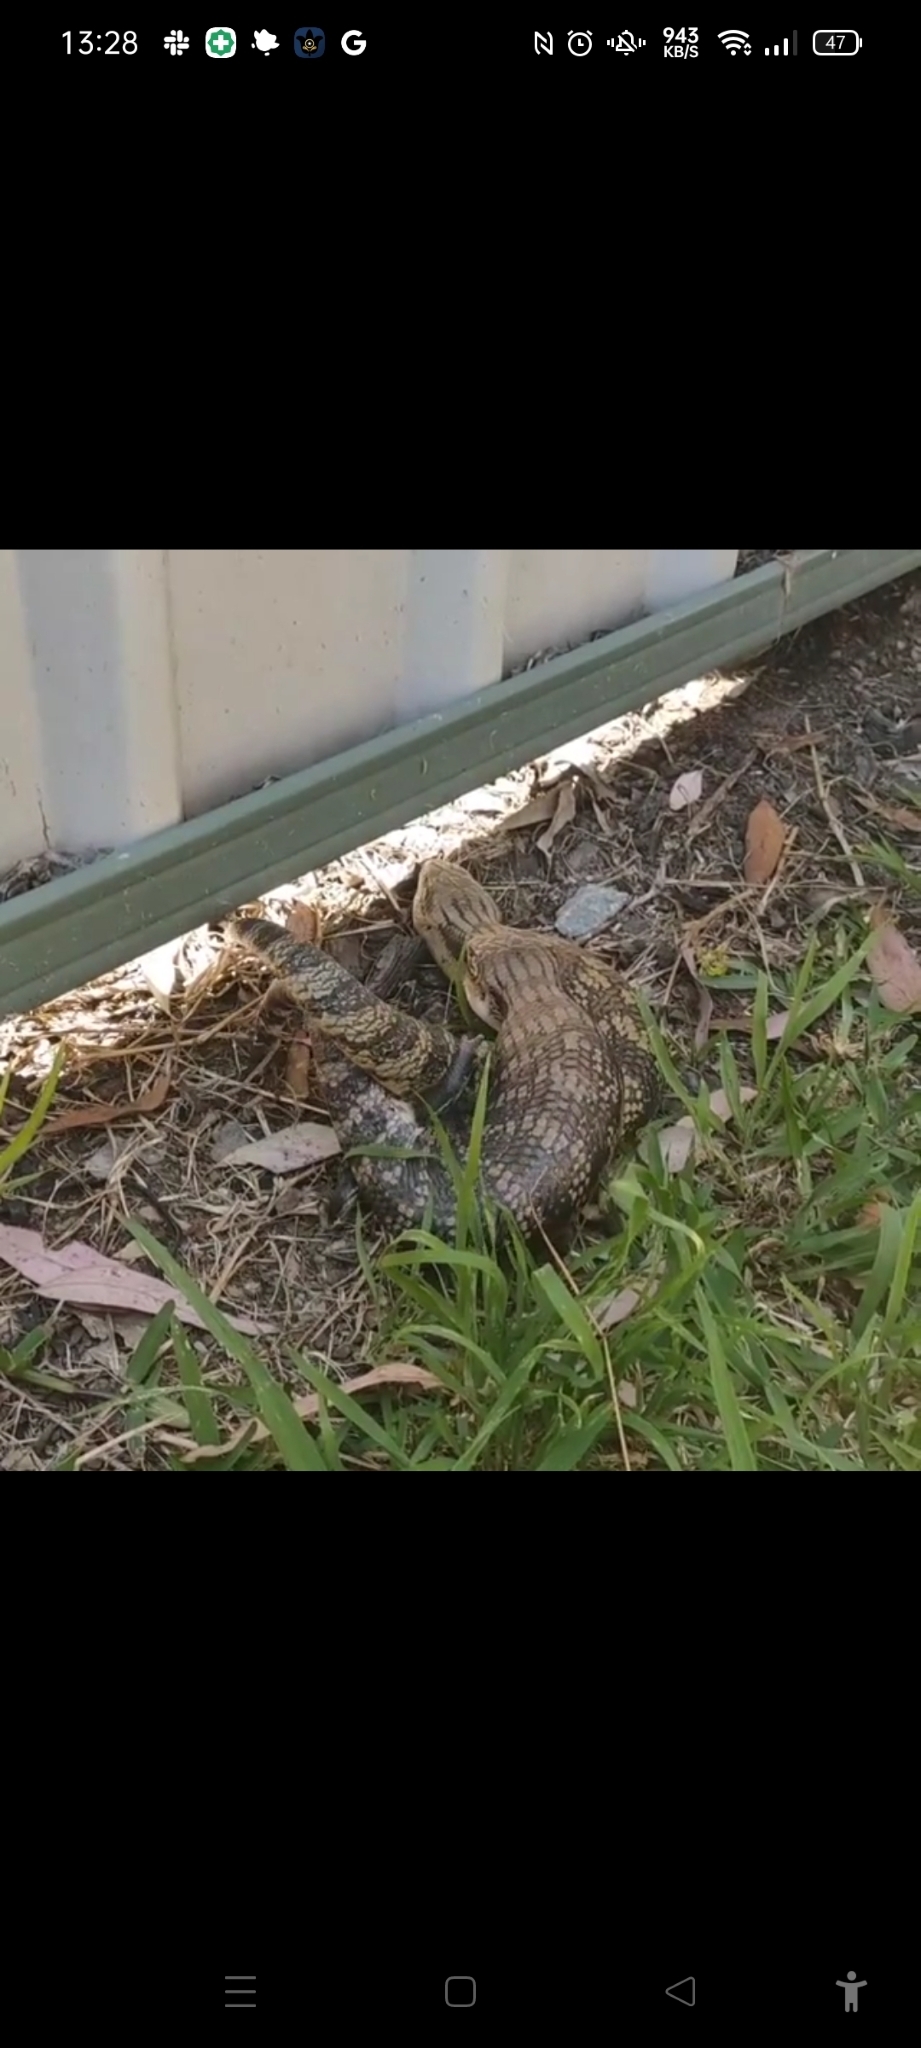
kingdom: Animalia
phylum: Chordata
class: Squamata
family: Scincidae
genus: Tiliqua
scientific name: Tiliqua scincoides
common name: Common bluetongue
